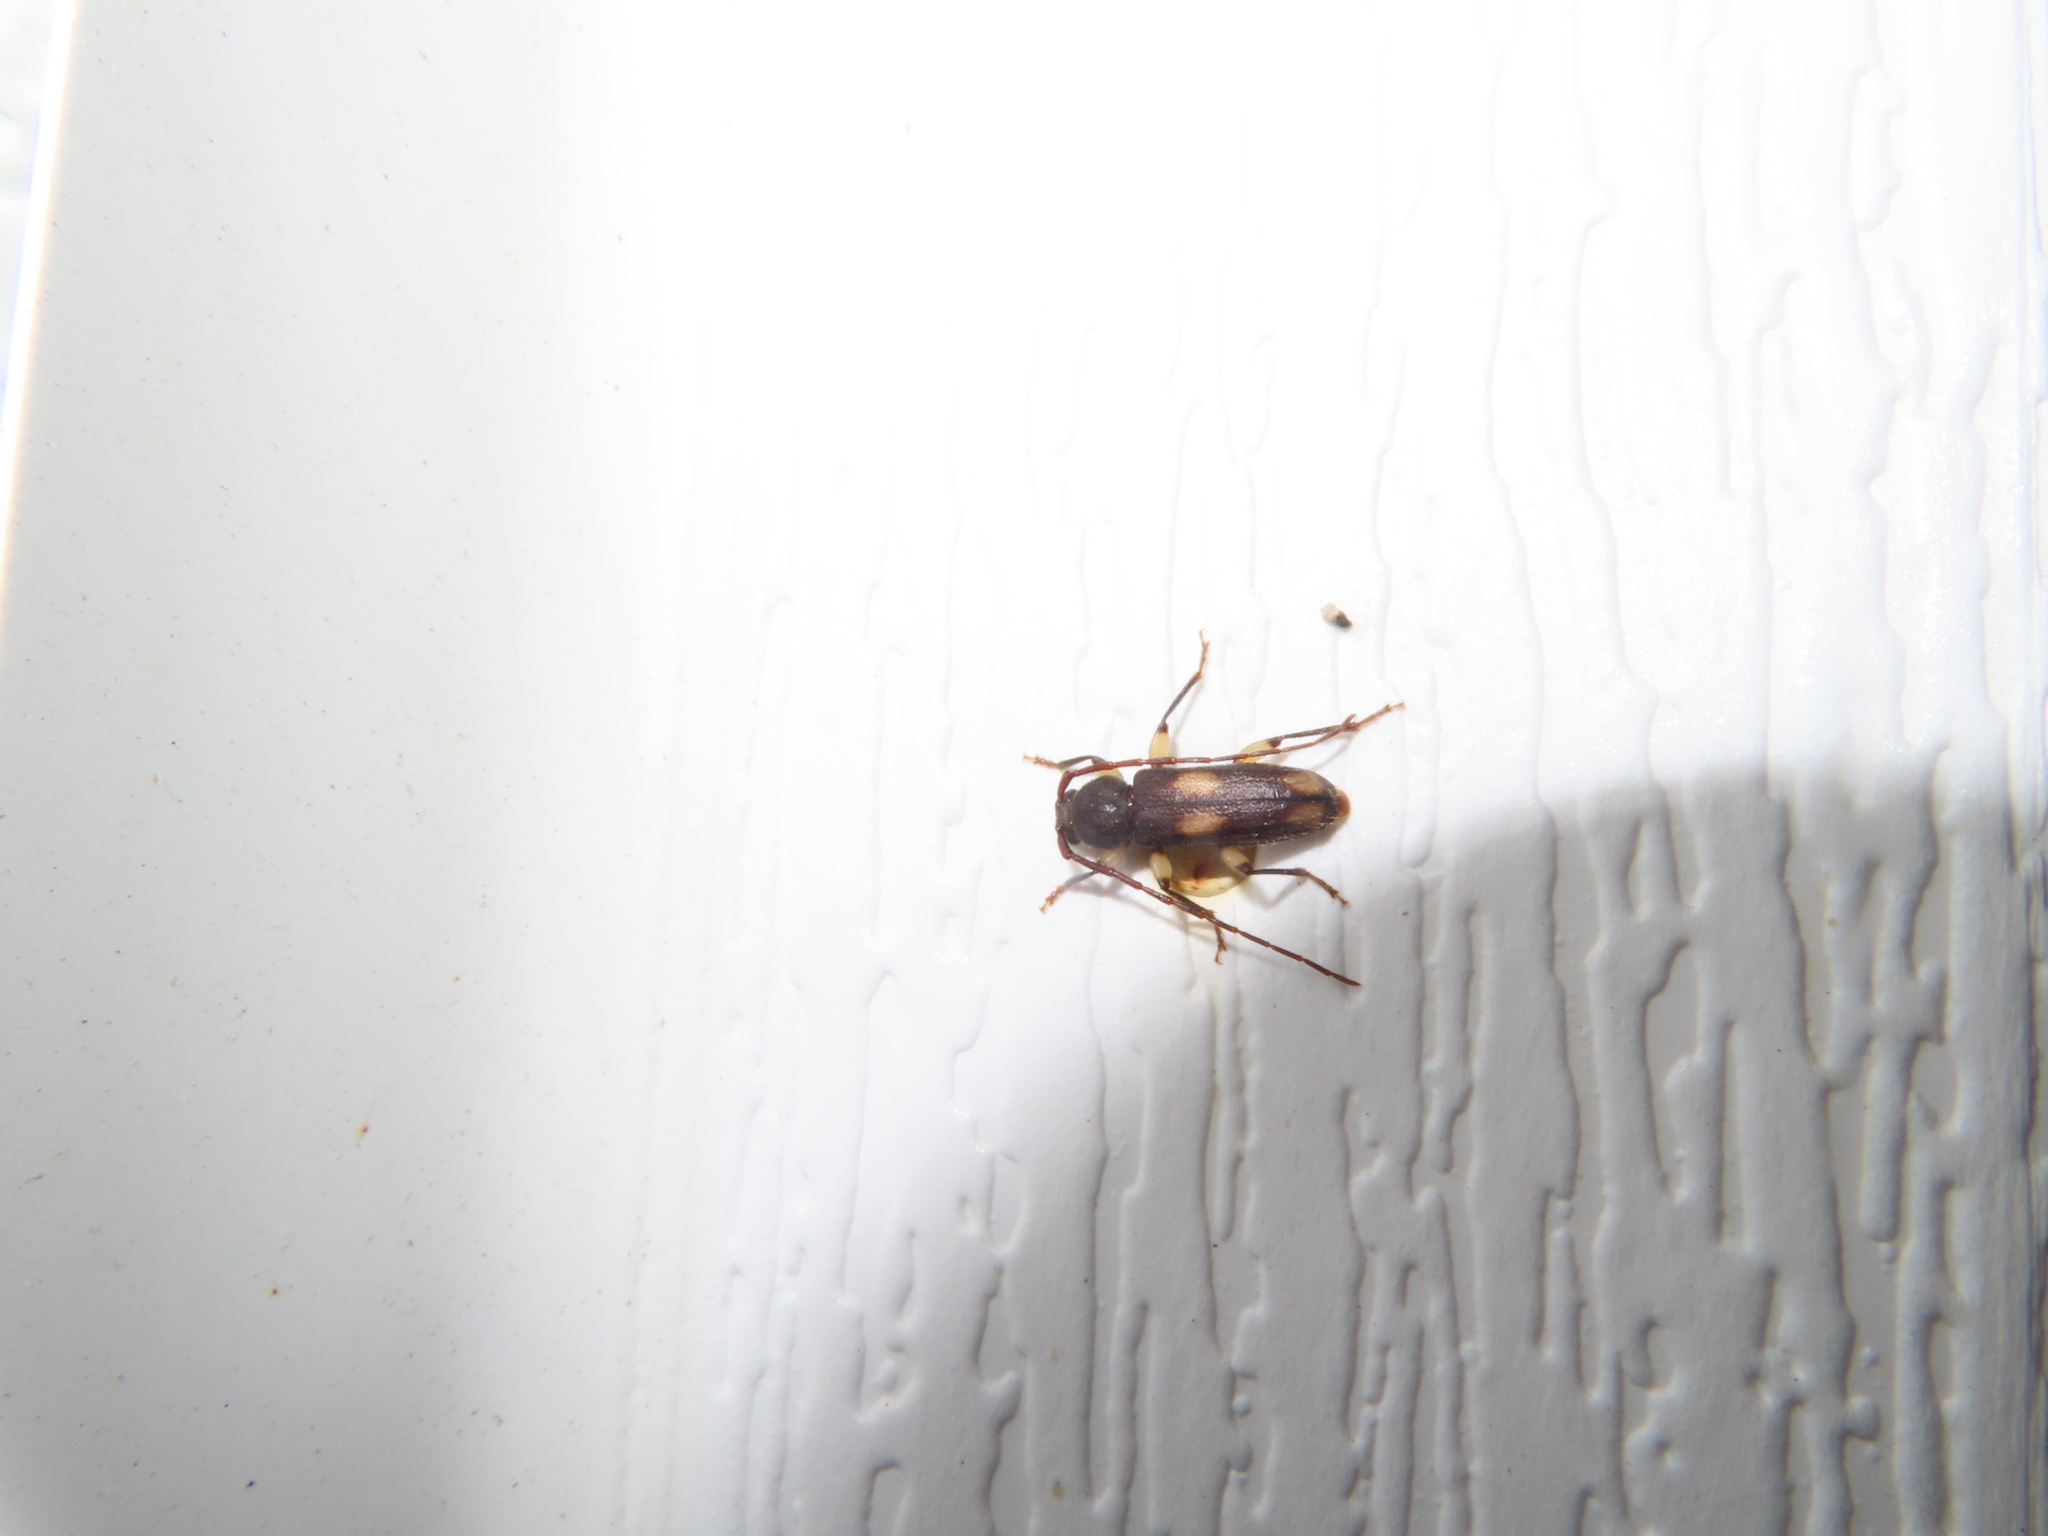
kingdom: Animalia
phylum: Arthropoda
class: Insecta
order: Coleoptera
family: Cerambycidae
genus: Tylonotus
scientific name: Tylonotus bimaculatus
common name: Ash and privet borer
